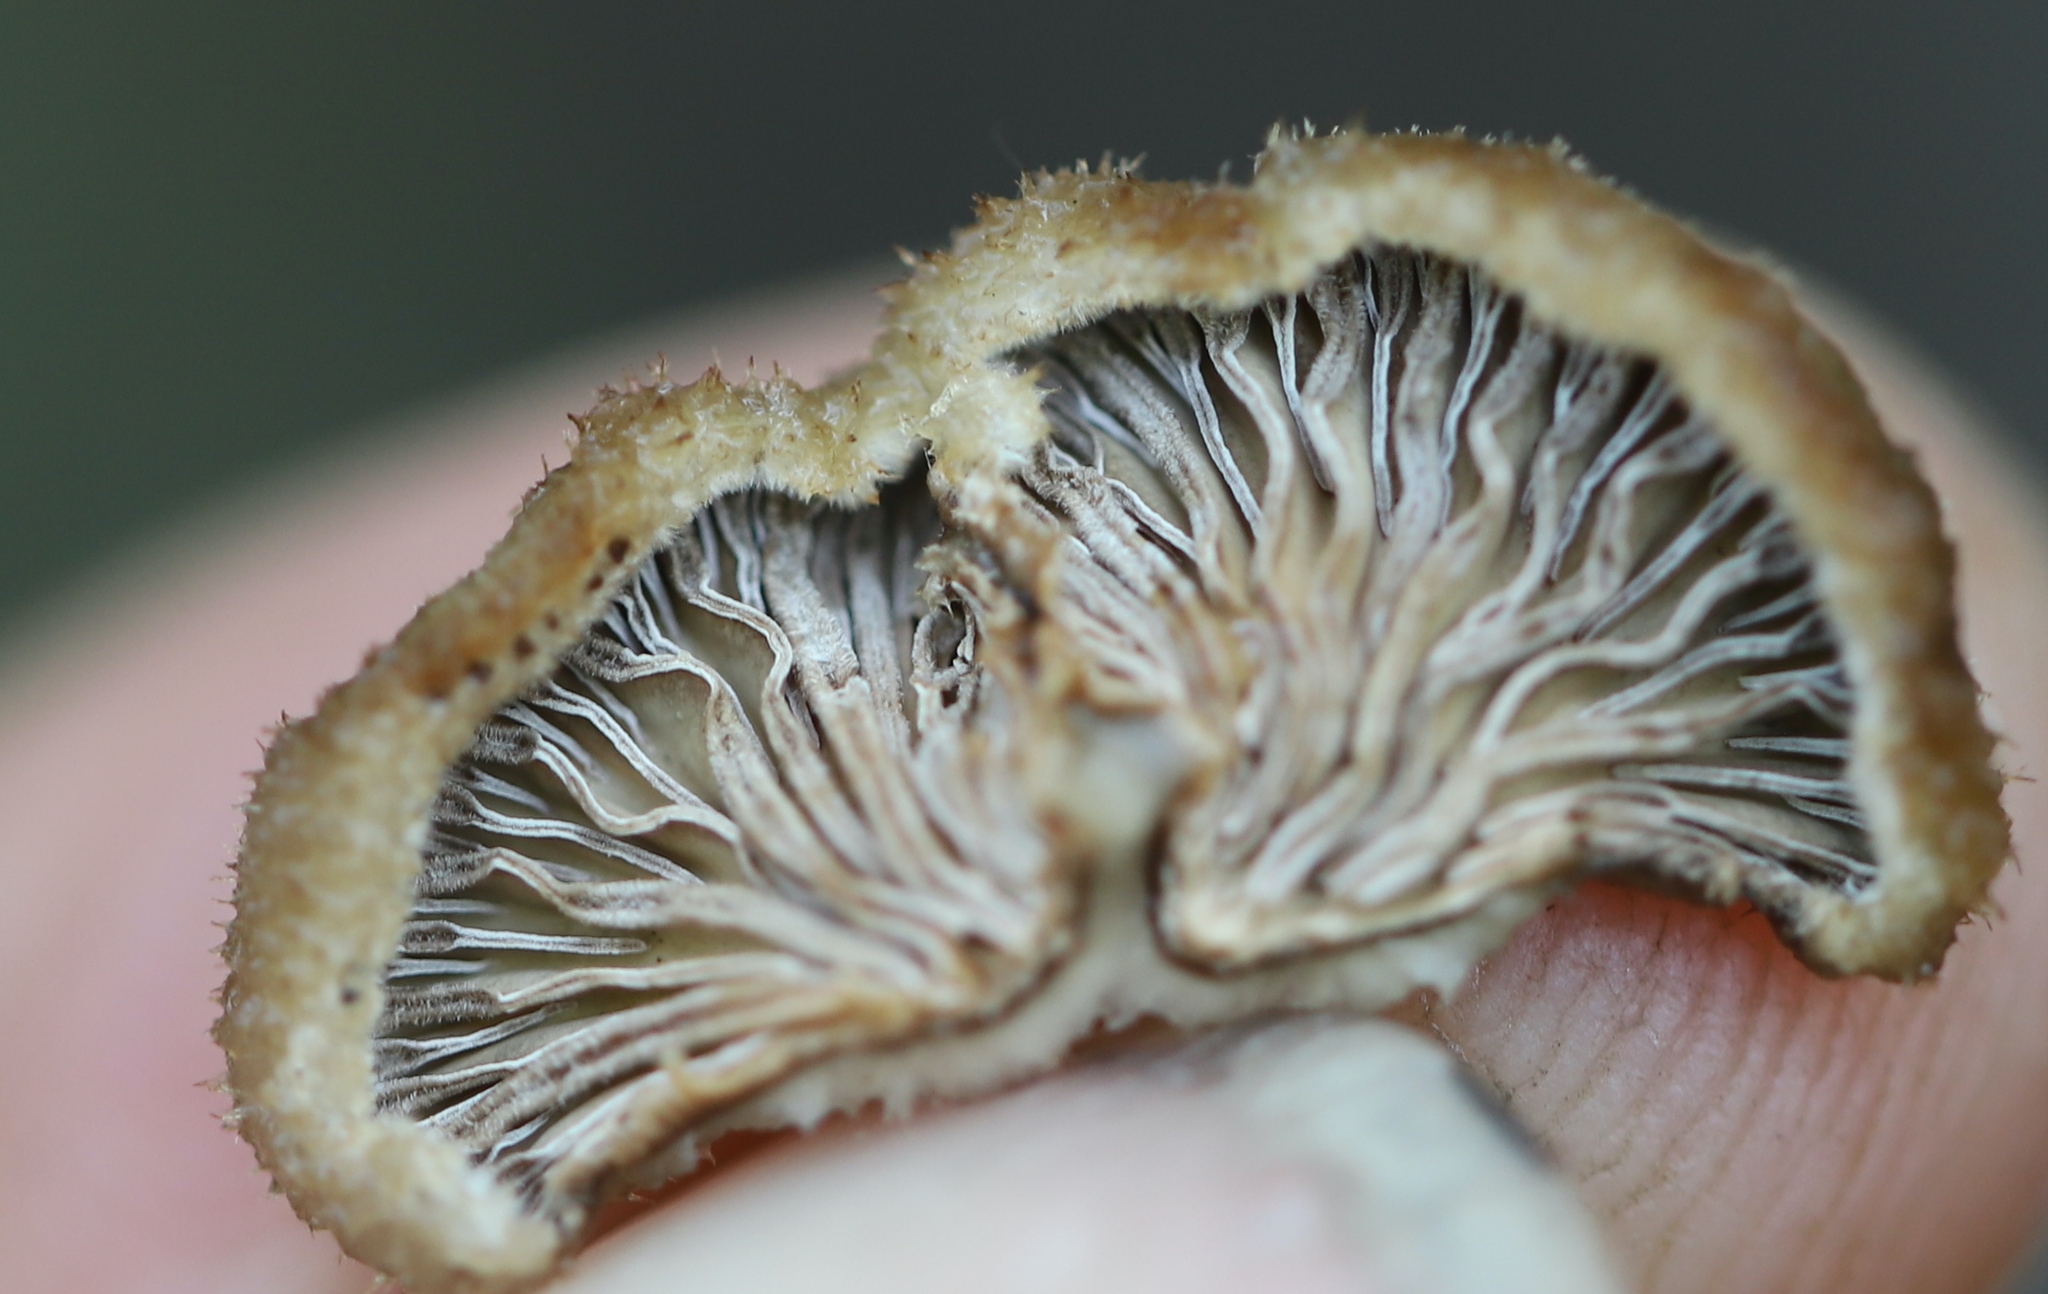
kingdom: Fungi
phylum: Basidiomycota
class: Agaricomycetes
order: Agaricales
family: Schizophyllaceae
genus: Schizophyllum
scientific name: Schizophyllum commune
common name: Common porecrust
